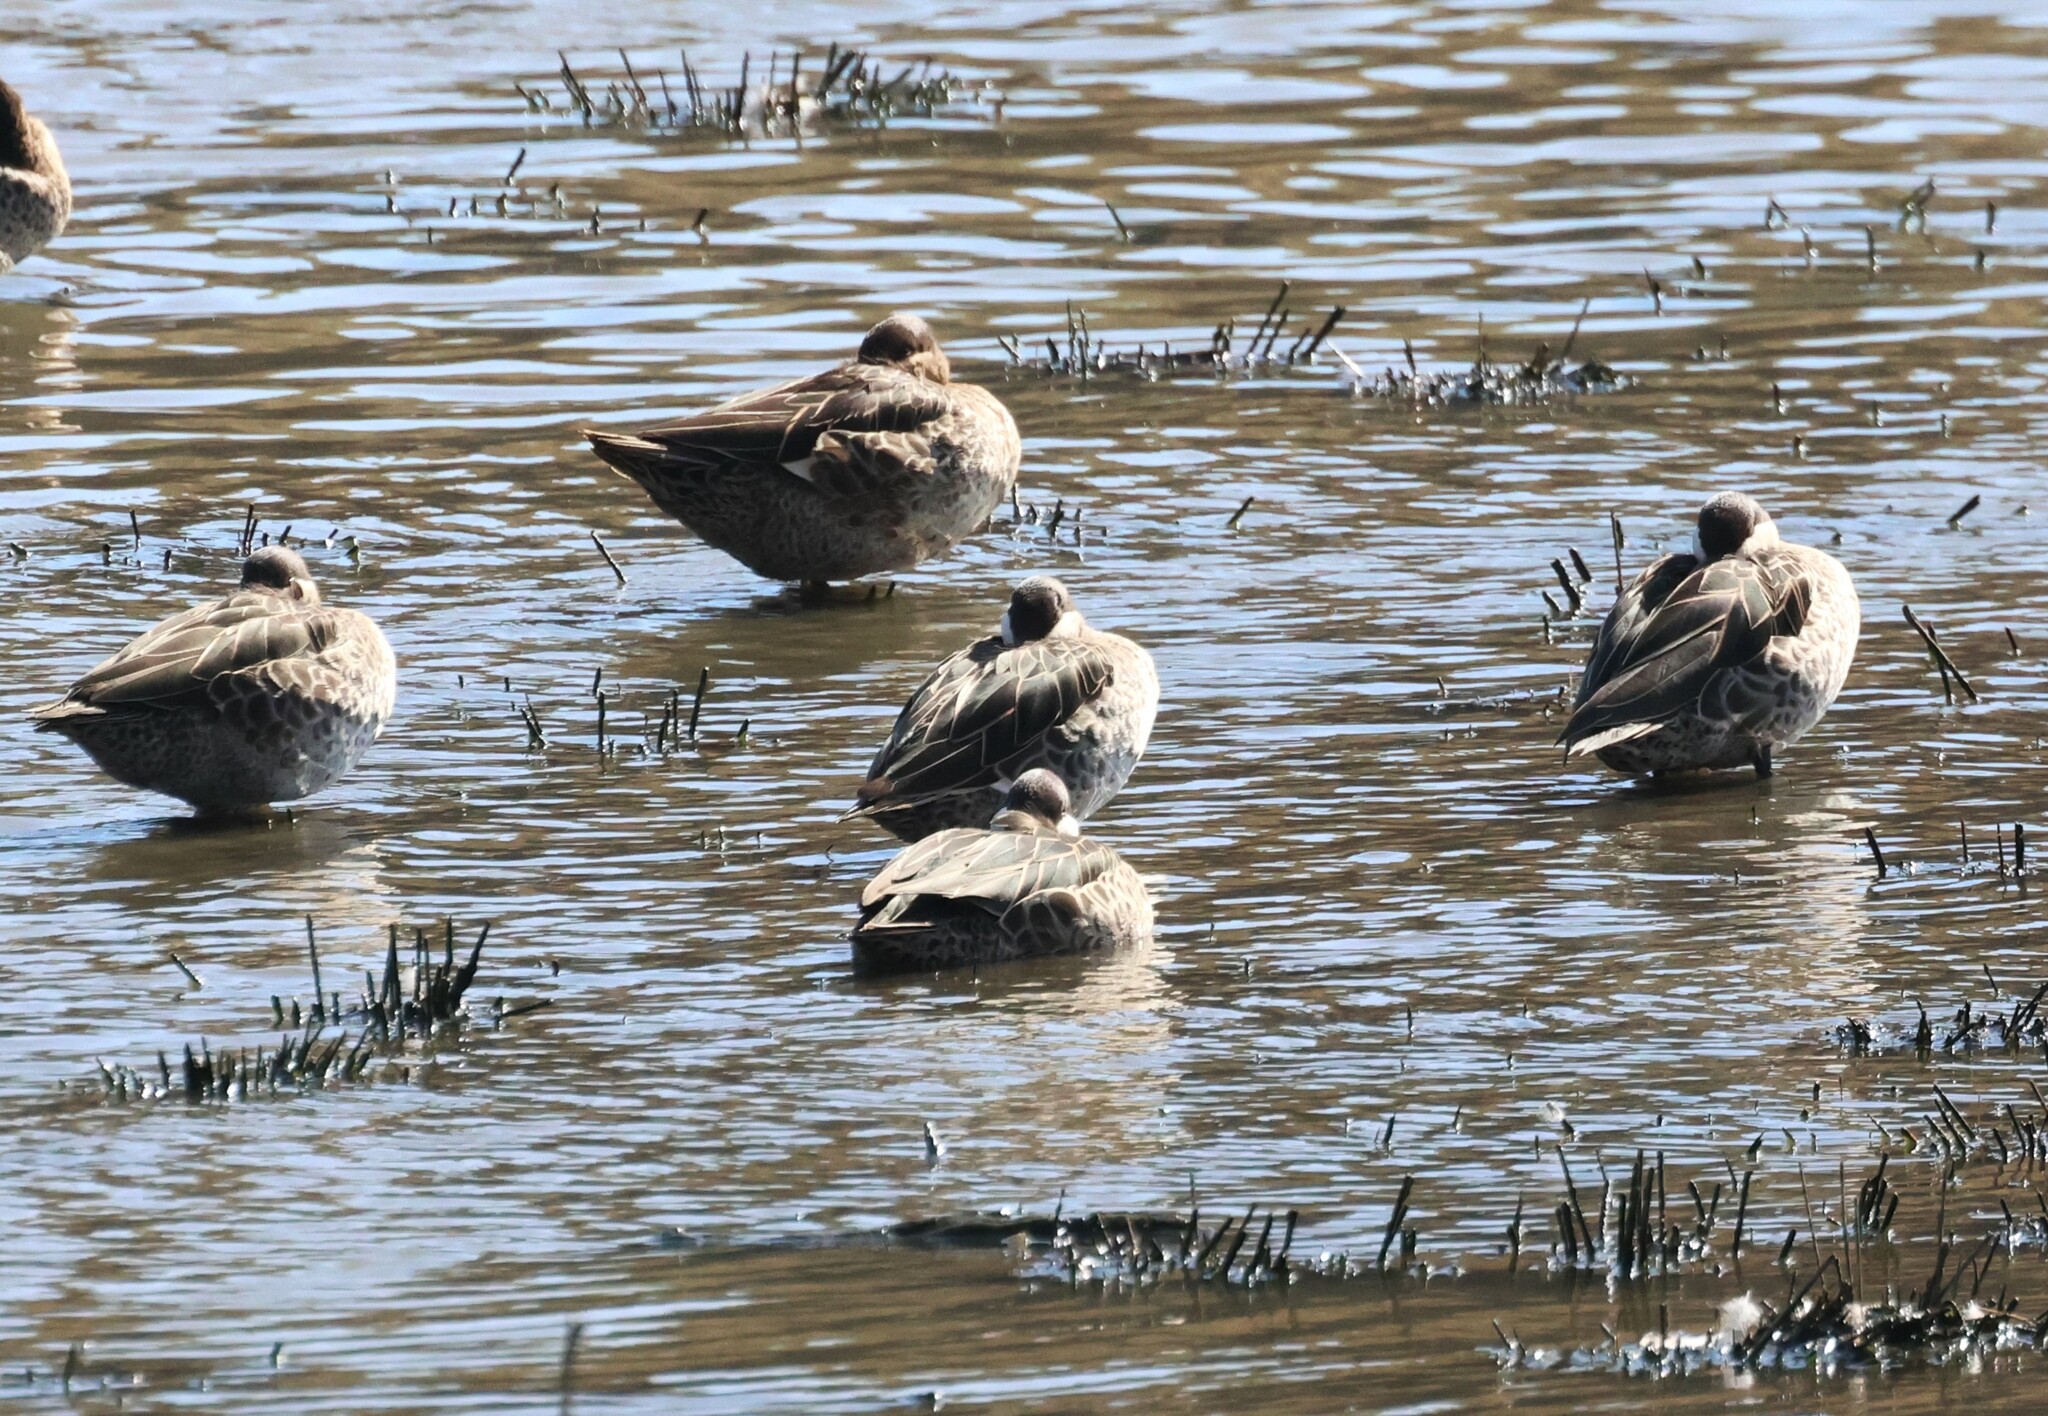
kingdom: Animalia
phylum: Chordata
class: Aves
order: Anseriformes
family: Anatidae
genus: Anas
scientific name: Anas erythrorhyncha
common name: Red-billed teal
